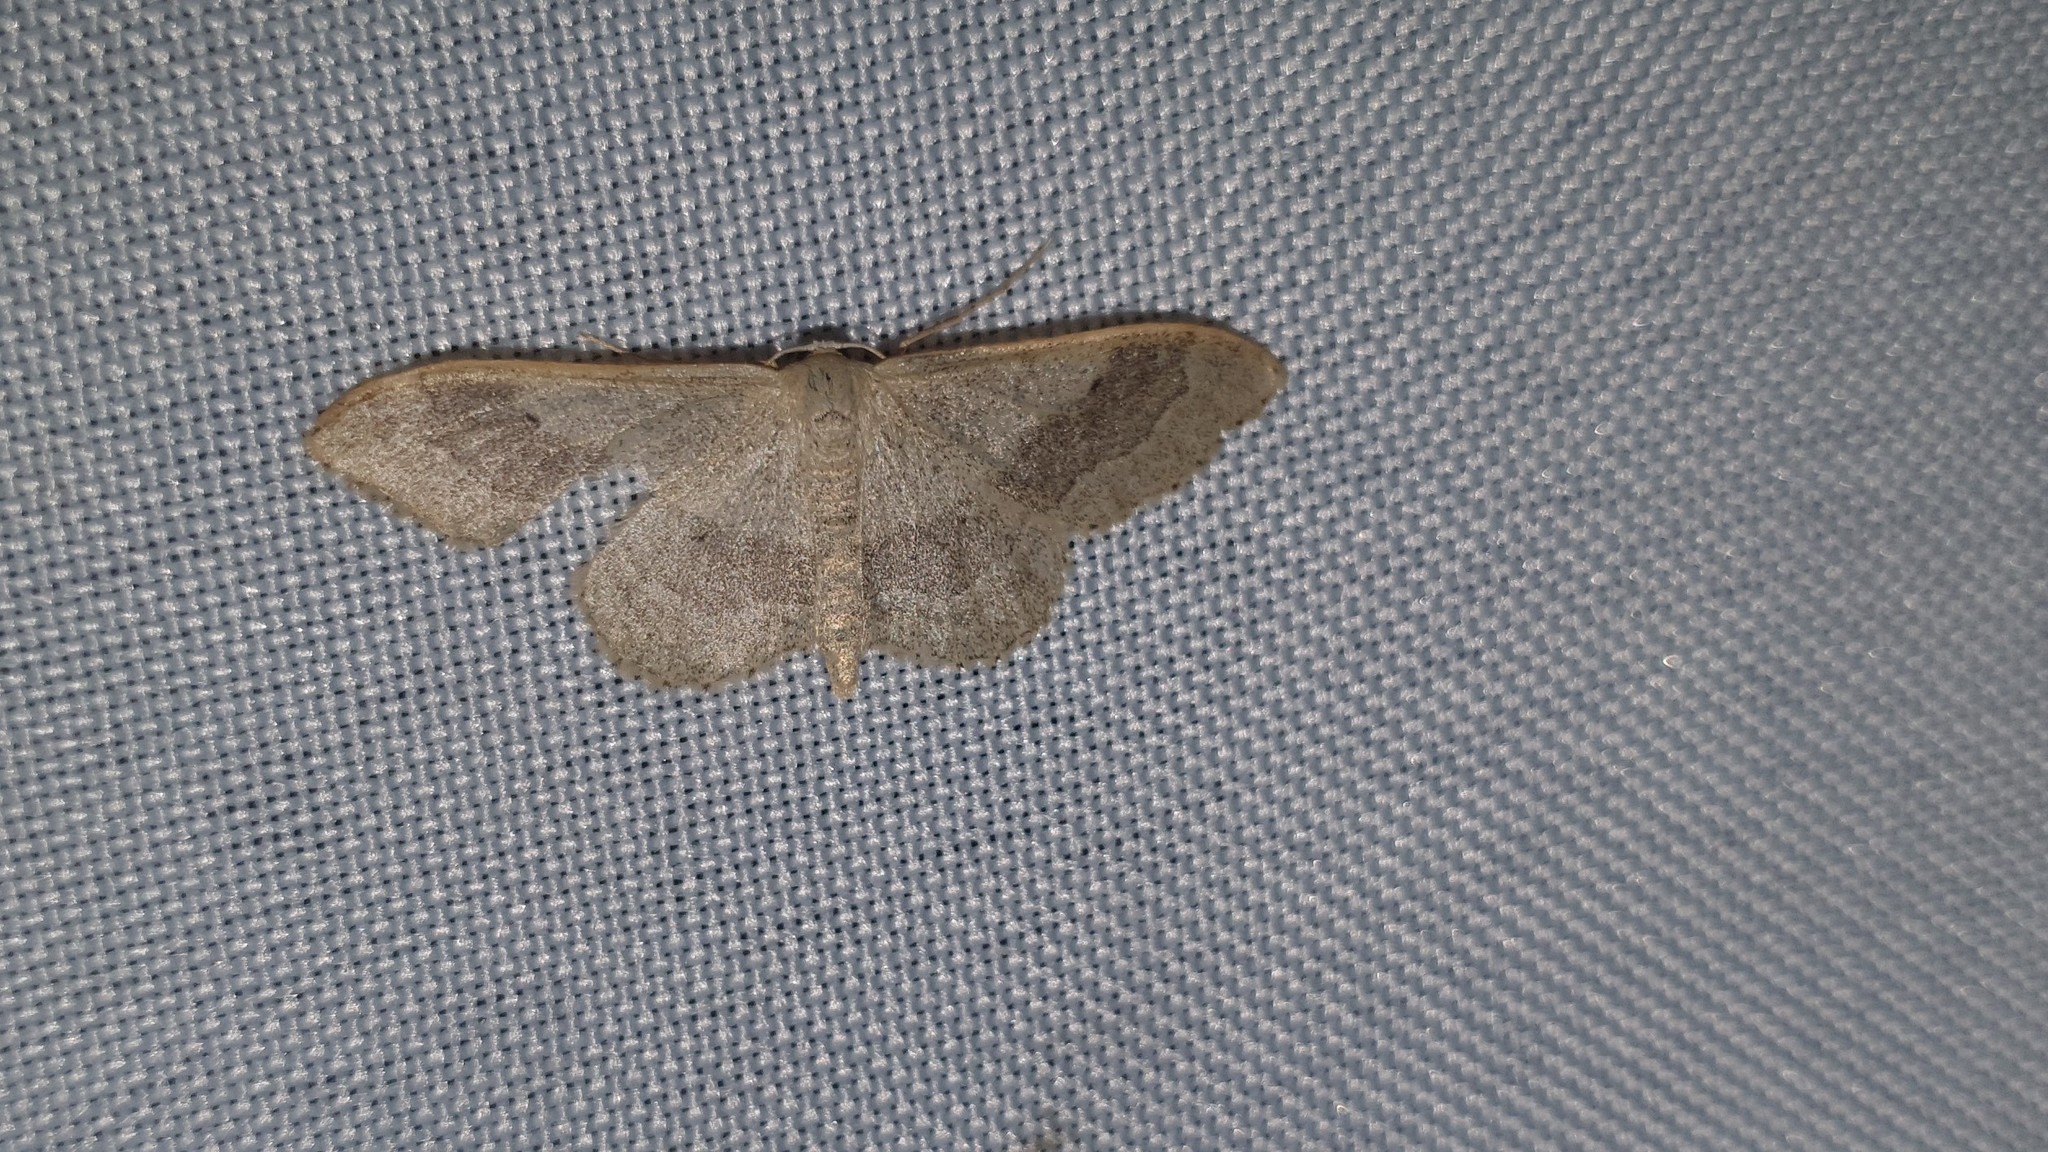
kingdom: Animalia
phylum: Arthropoda
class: Insecta
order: Lepidoptera
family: Geometridae
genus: Idaea
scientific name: Idaea aversata
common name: Riband wave
